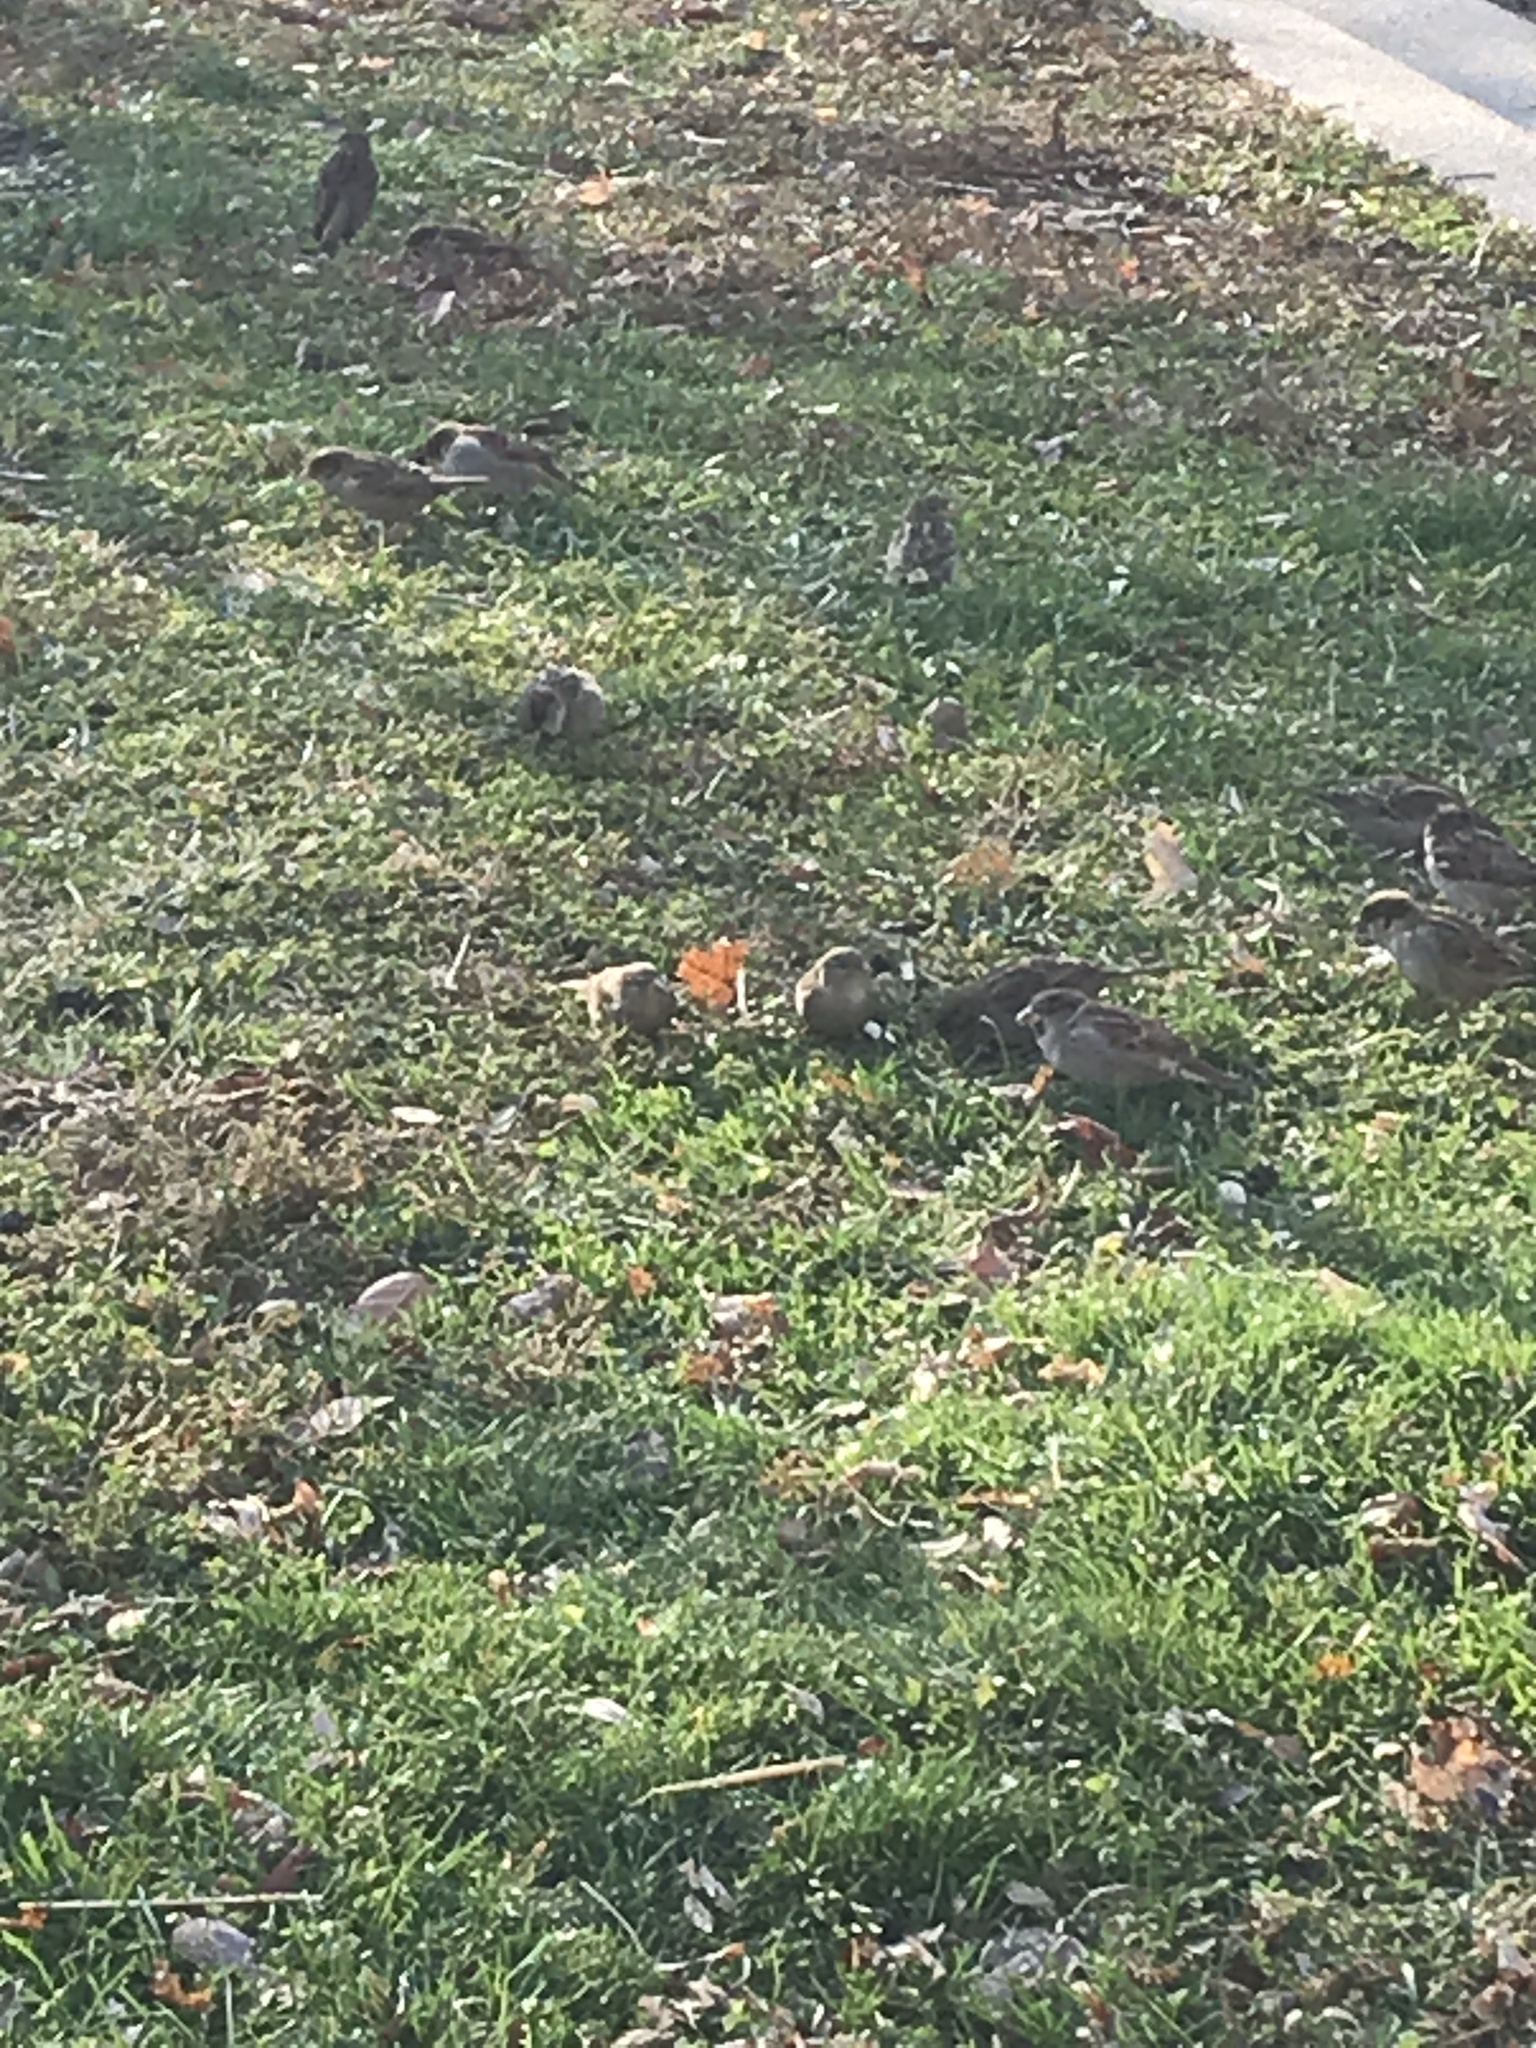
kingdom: Animalia
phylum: Chordata
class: Aves
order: Passeriformes
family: Passeridae
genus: Passer
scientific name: Passer domesticus
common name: House sparrow
